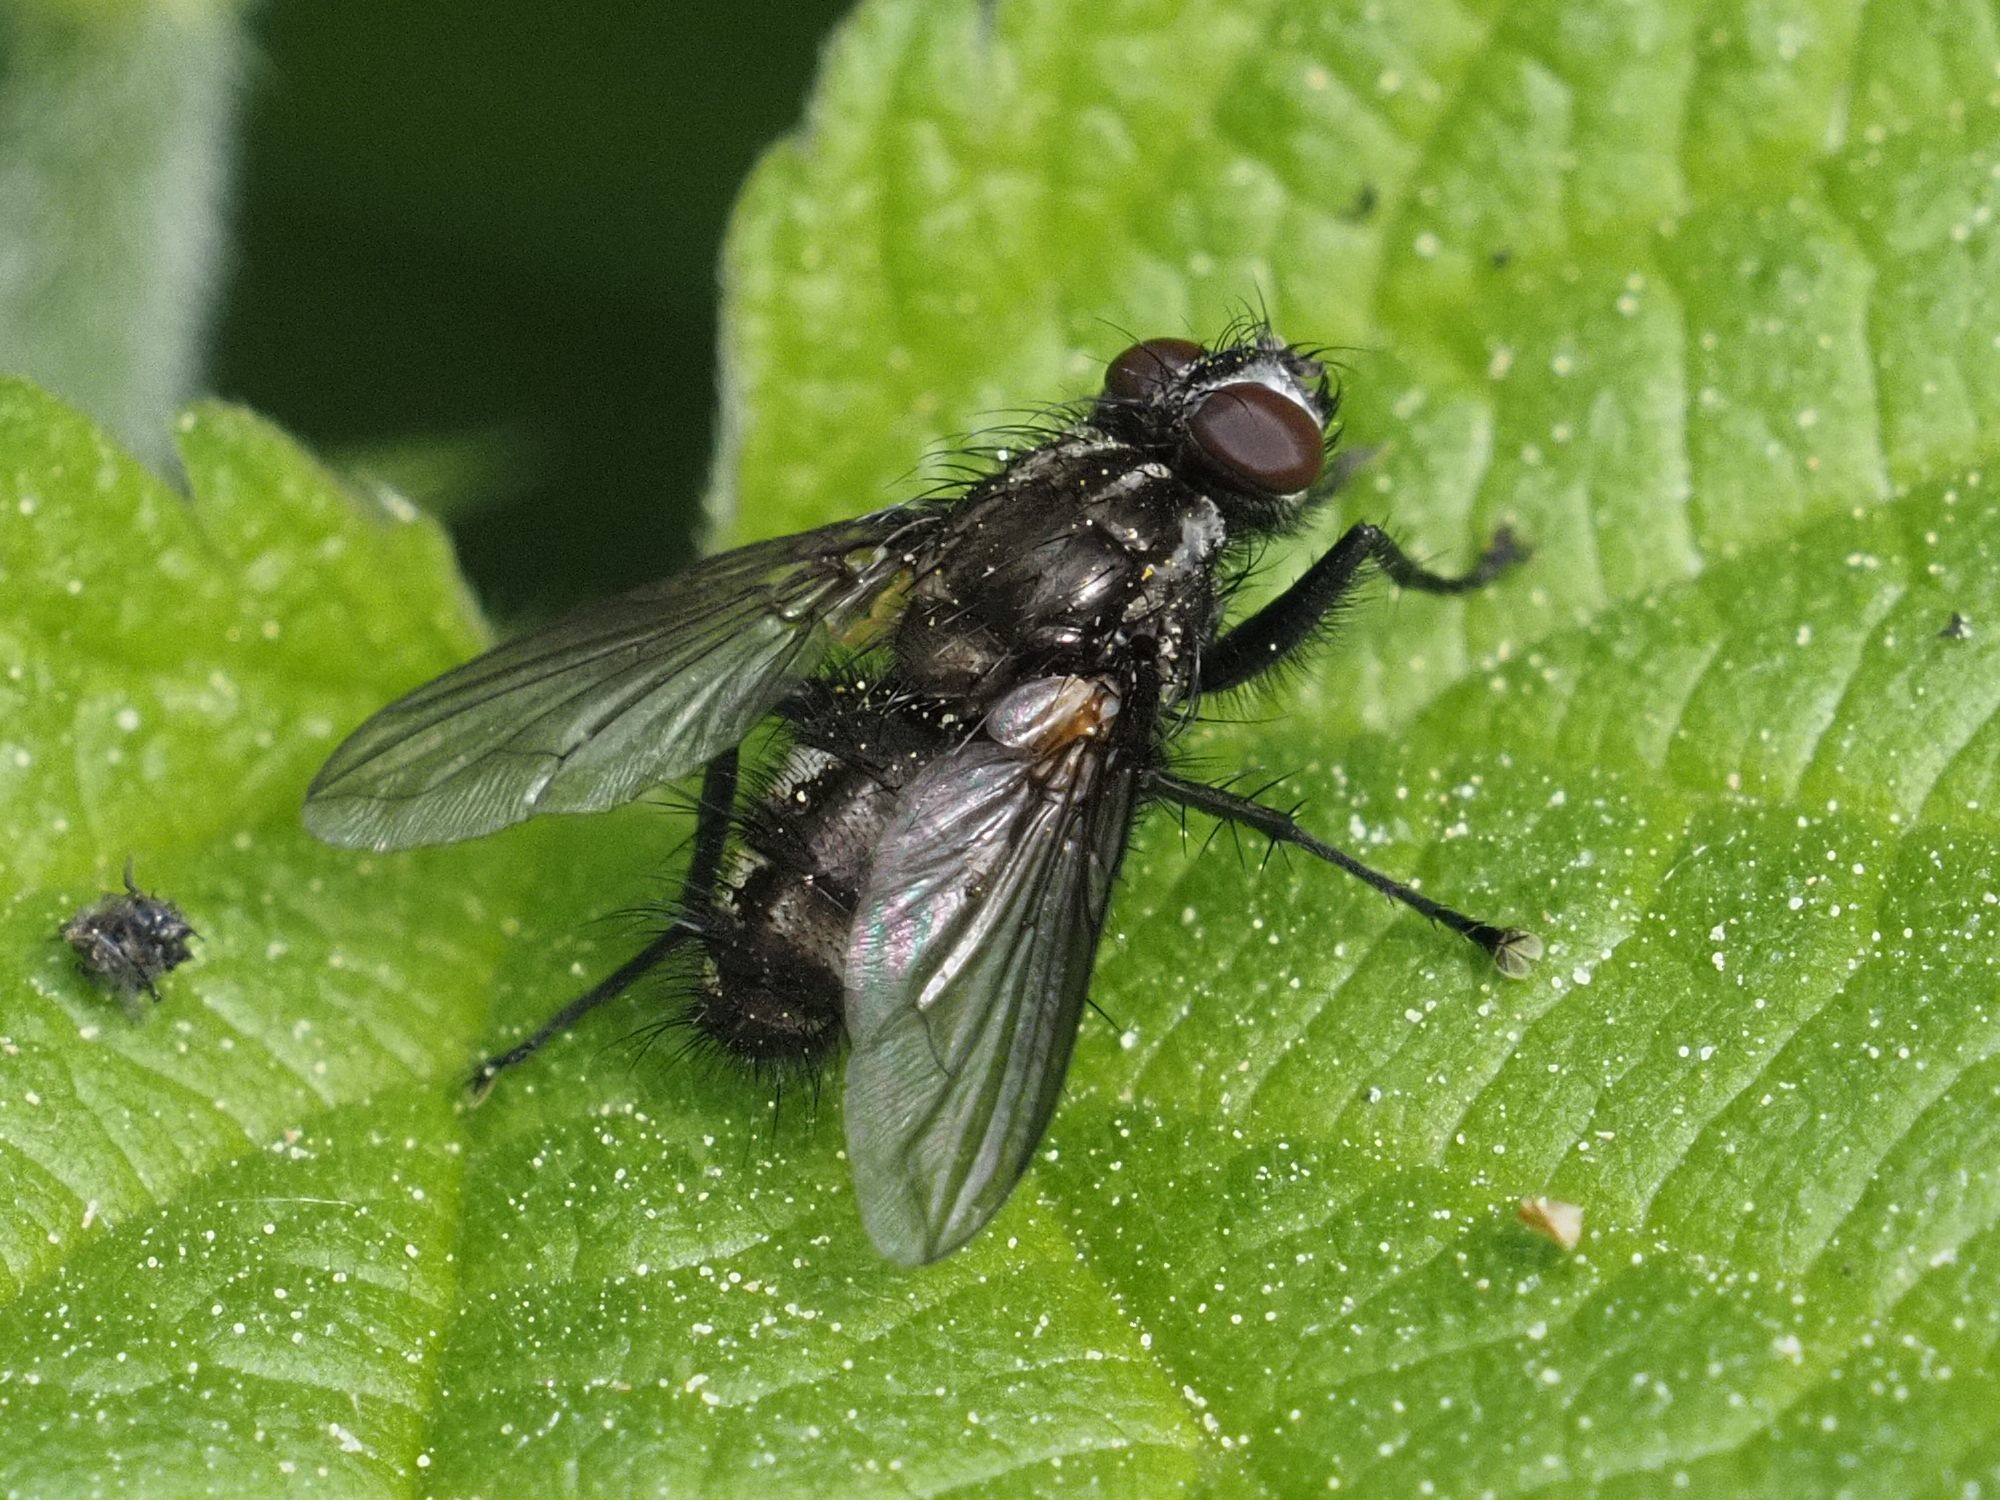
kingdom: Animalia
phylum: Arthropoda
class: Insecta
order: Diptera
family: Calliphoridae
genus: Rhinomorinia
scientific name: Rhinomorinia sarcophagina
